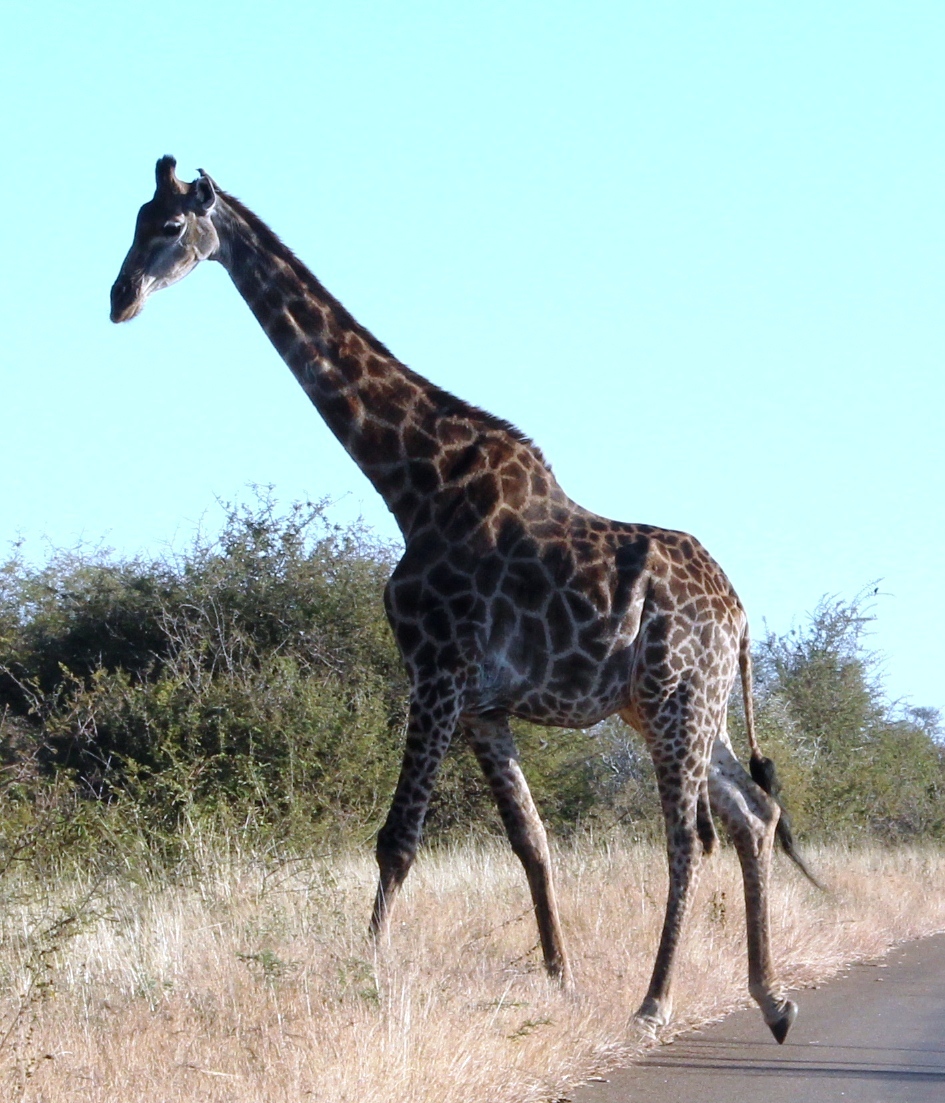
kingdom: Animalia
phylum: Chordata
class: Mammalia
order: Artiodactyla
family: Giraffidae
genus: Giraffa
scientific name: Giraffa giraffa
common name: Southern giraffe
